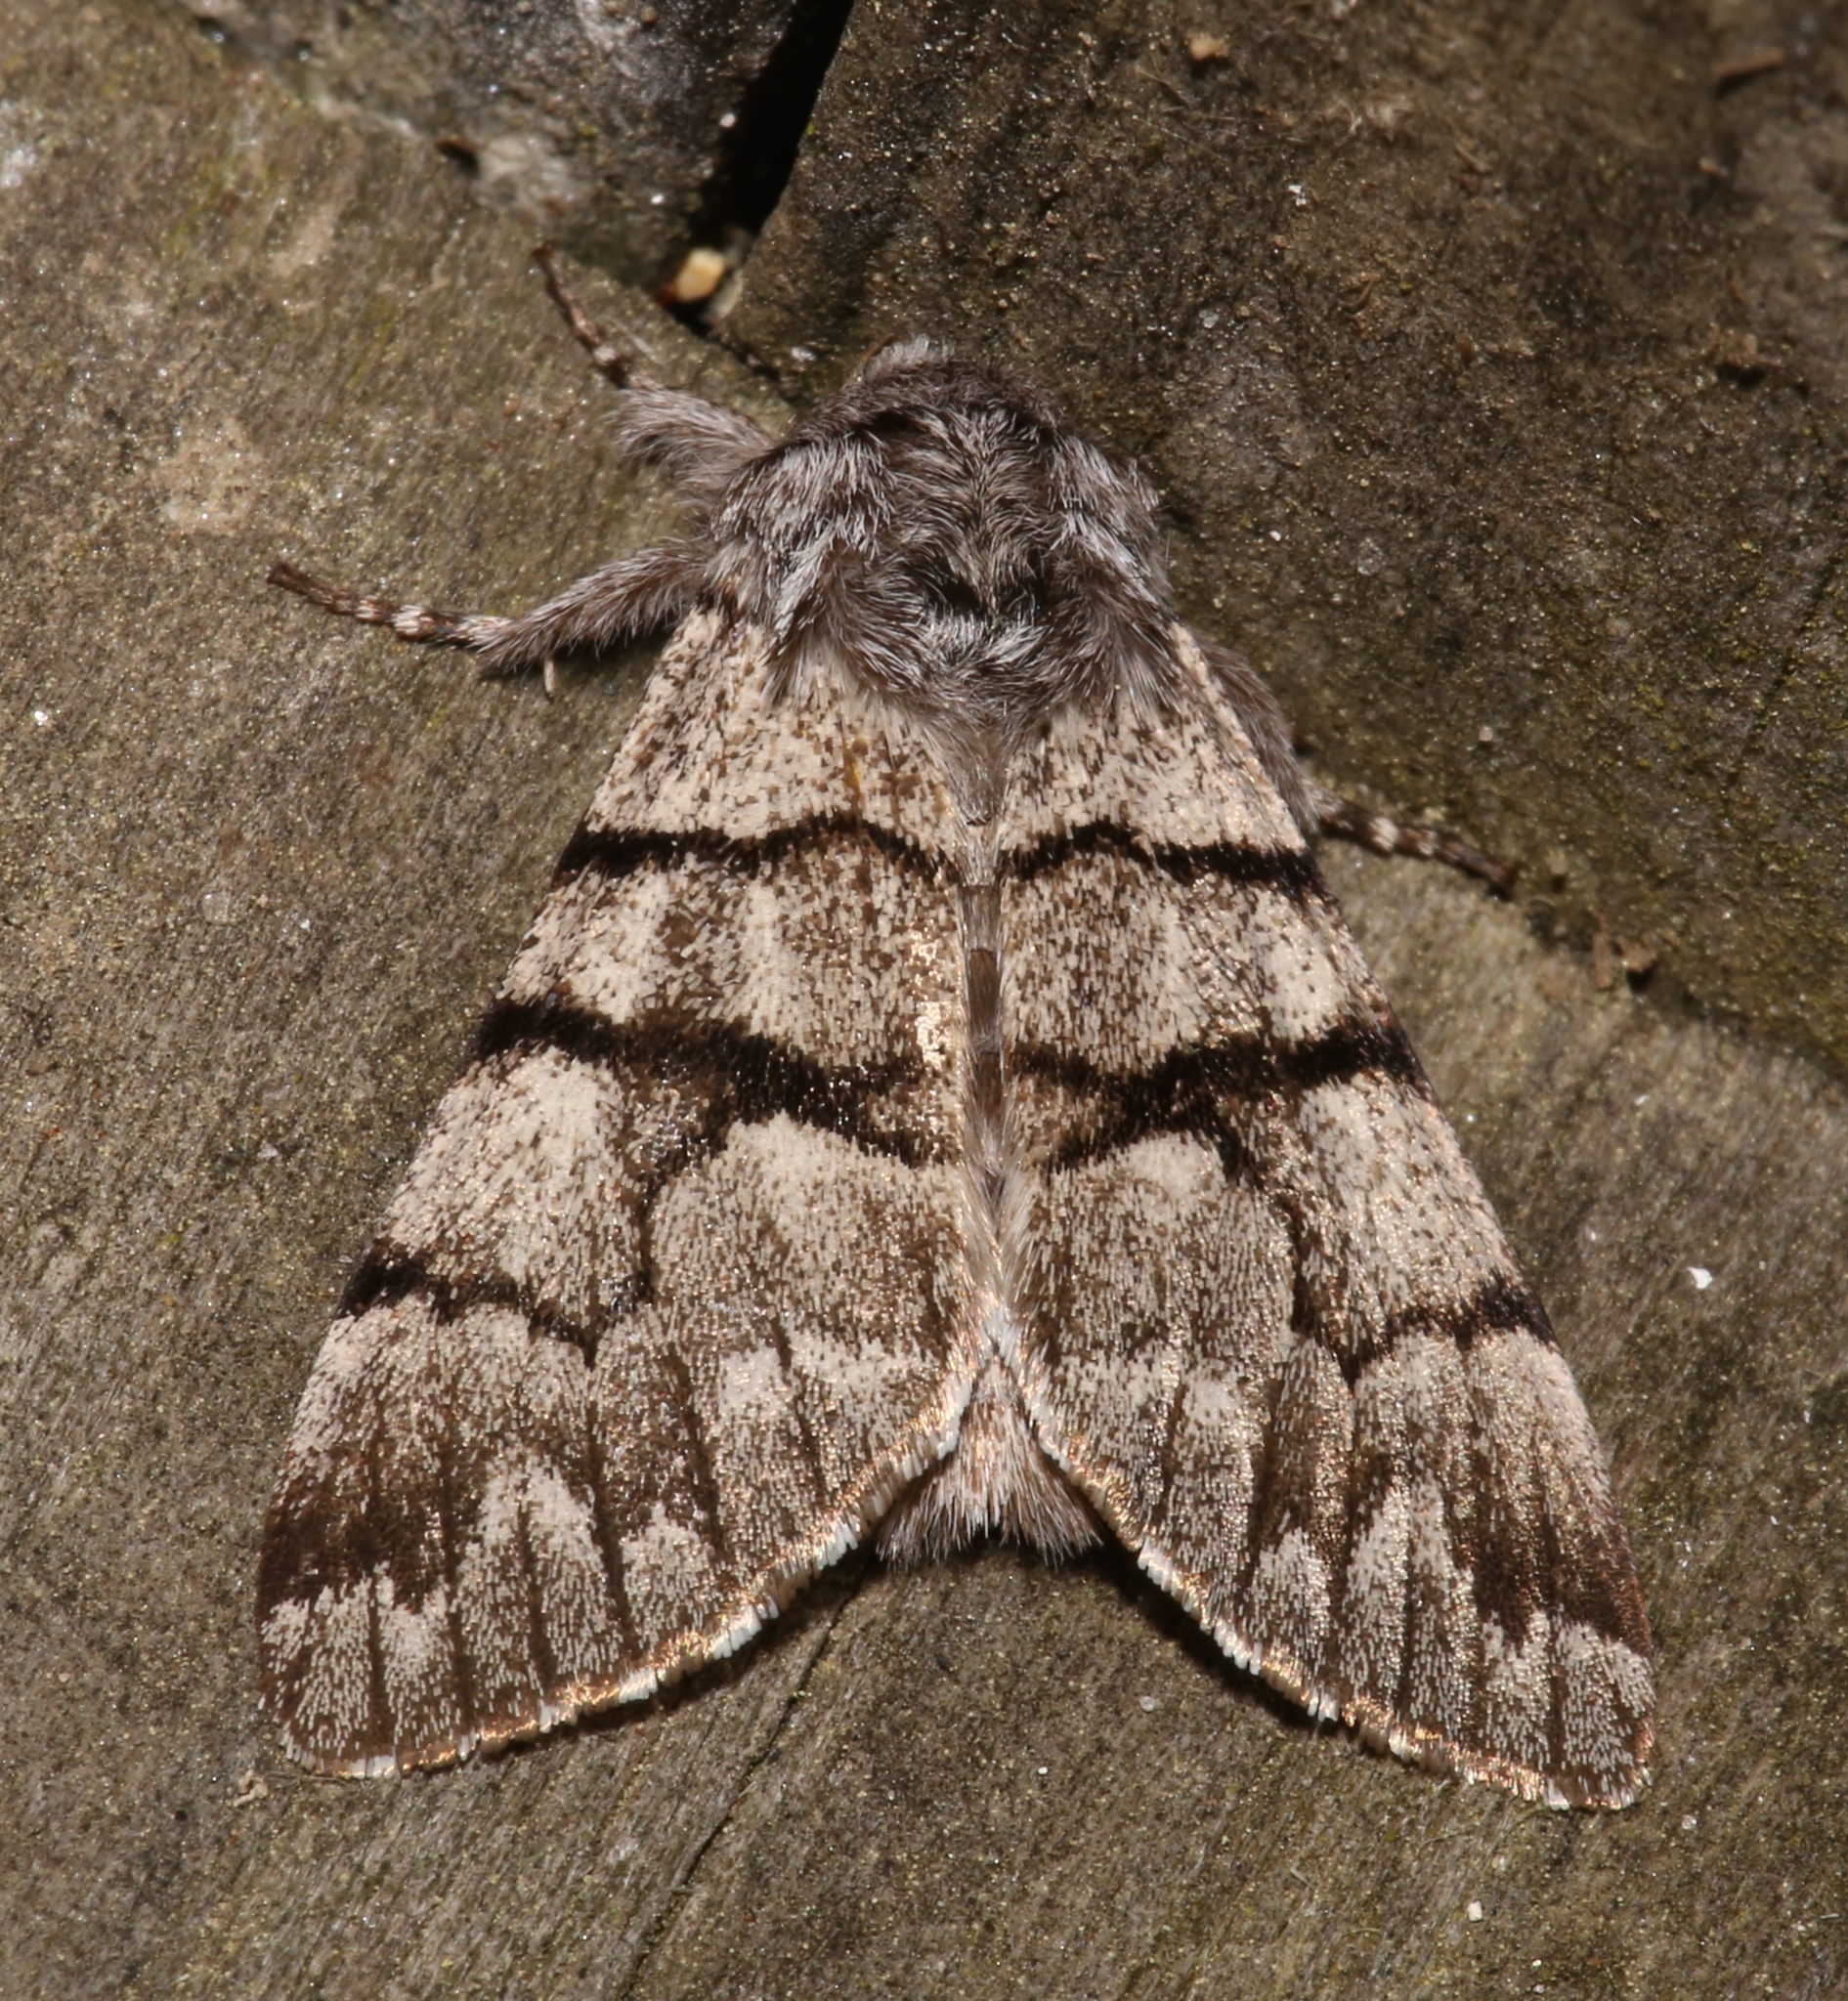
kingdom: Animalia
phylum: Arthropoda
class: Insecta
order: Lepidoptera
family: Noctuidae
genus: Panthea
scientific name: Panthea furcilla
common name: Eastern panthea moth
